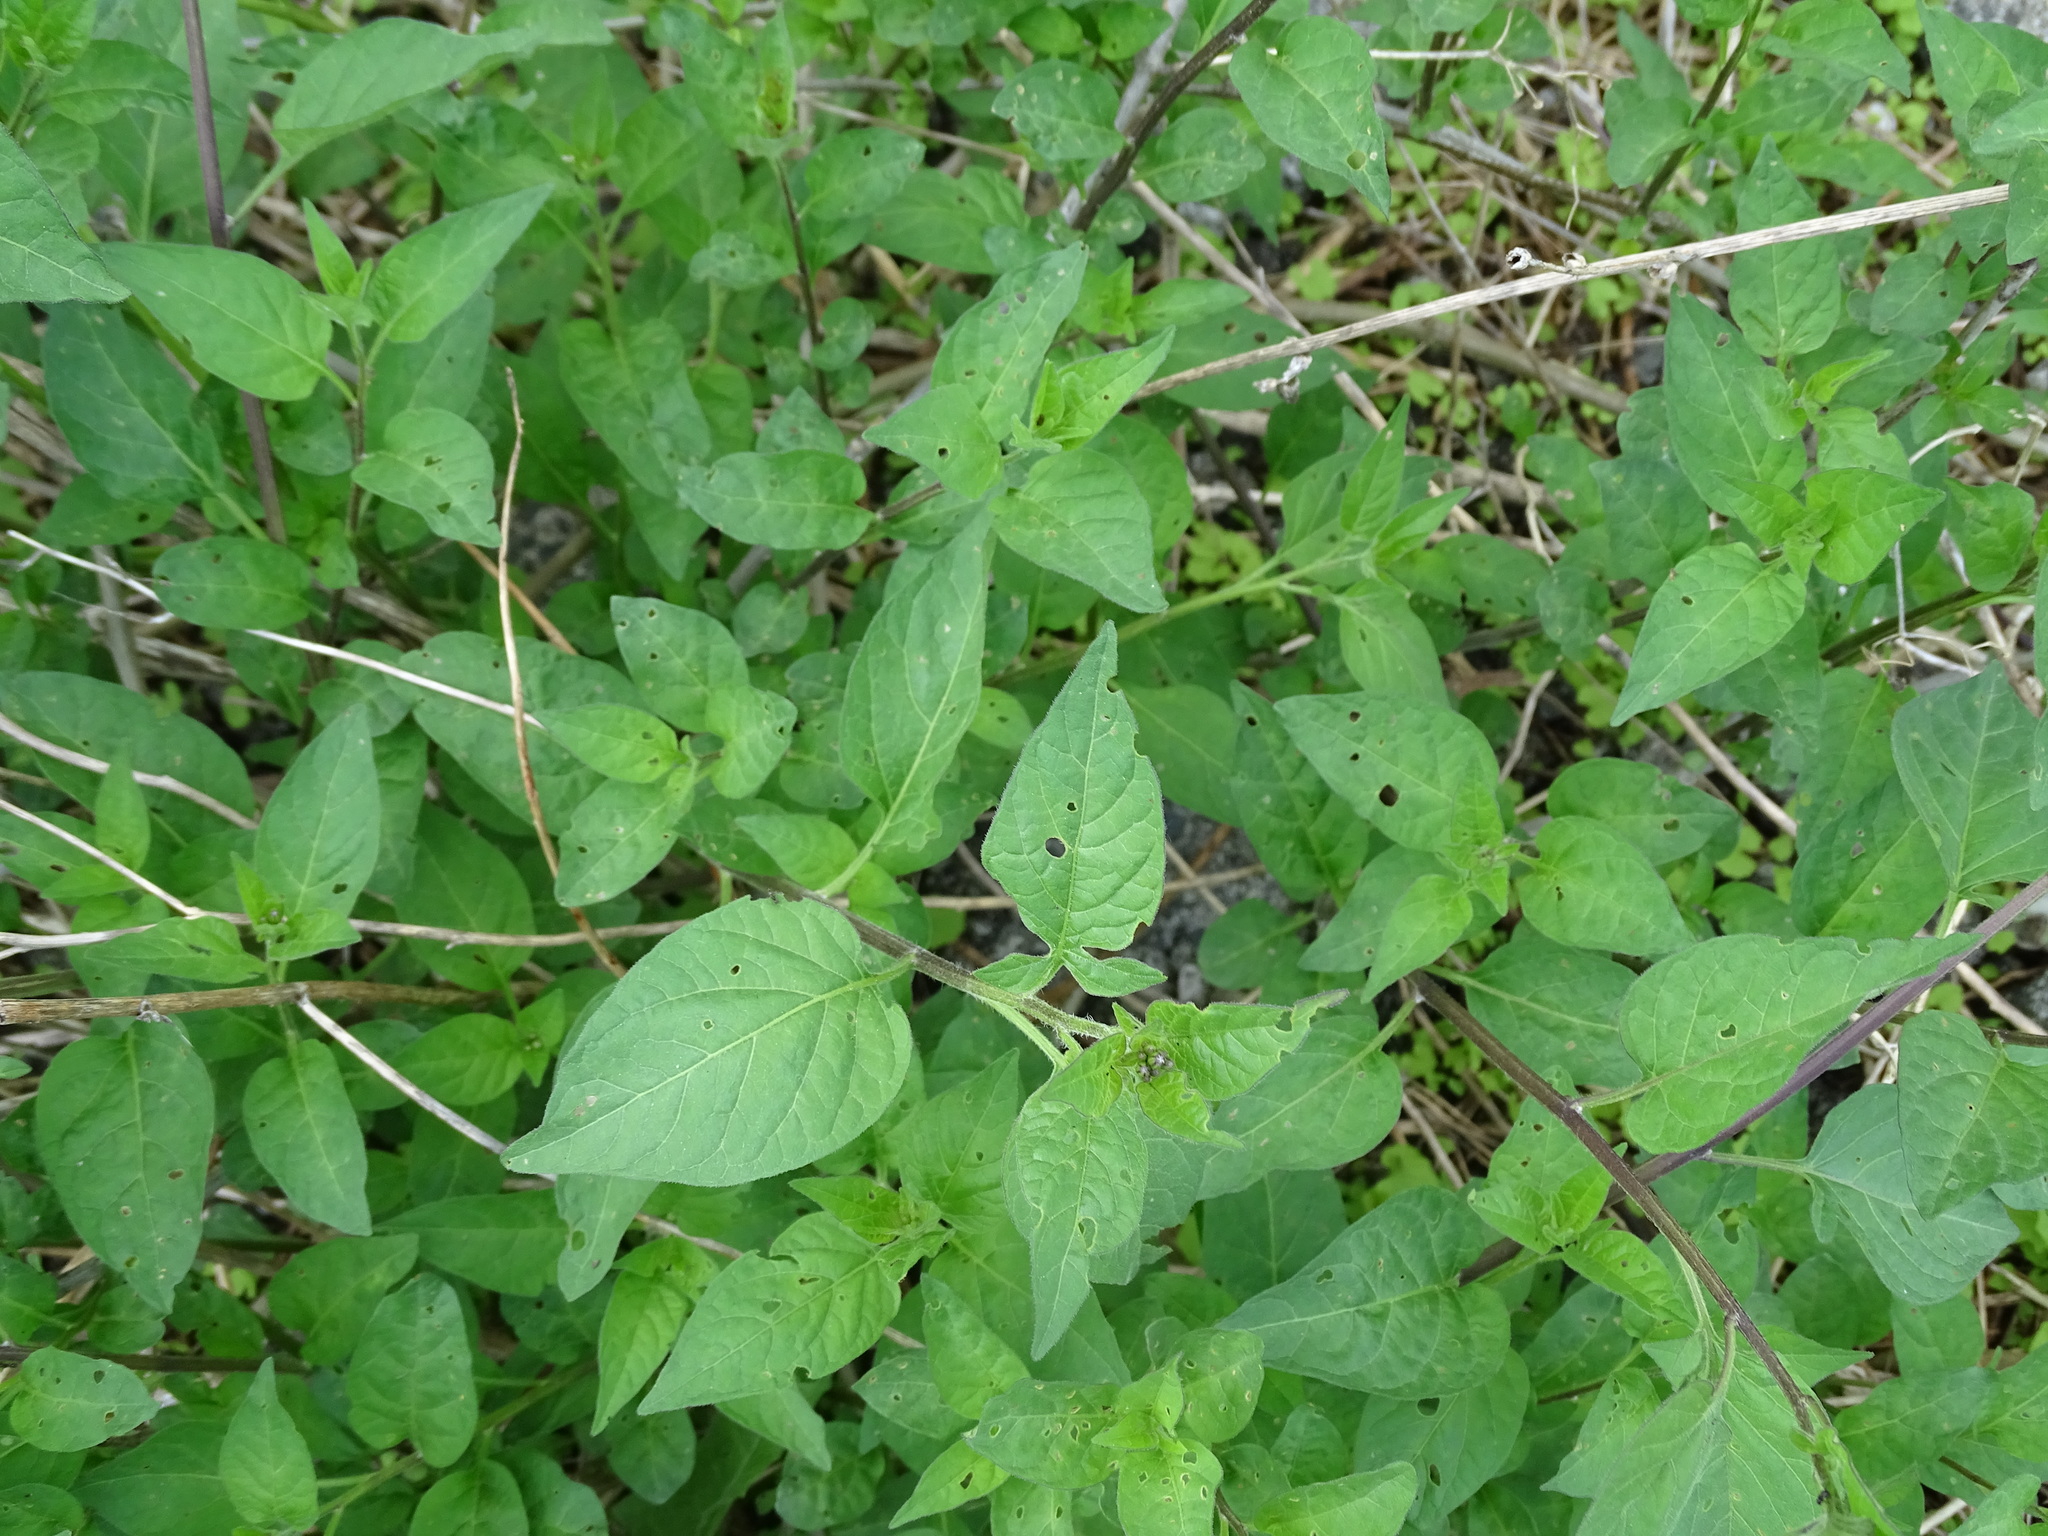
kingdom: Plantae
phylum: Tracheophyta
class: Magnoliopsida
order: Solanales
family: Solanaceae
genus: Solanum
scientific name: Solanum dulcamara
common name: Climbing nightshade
